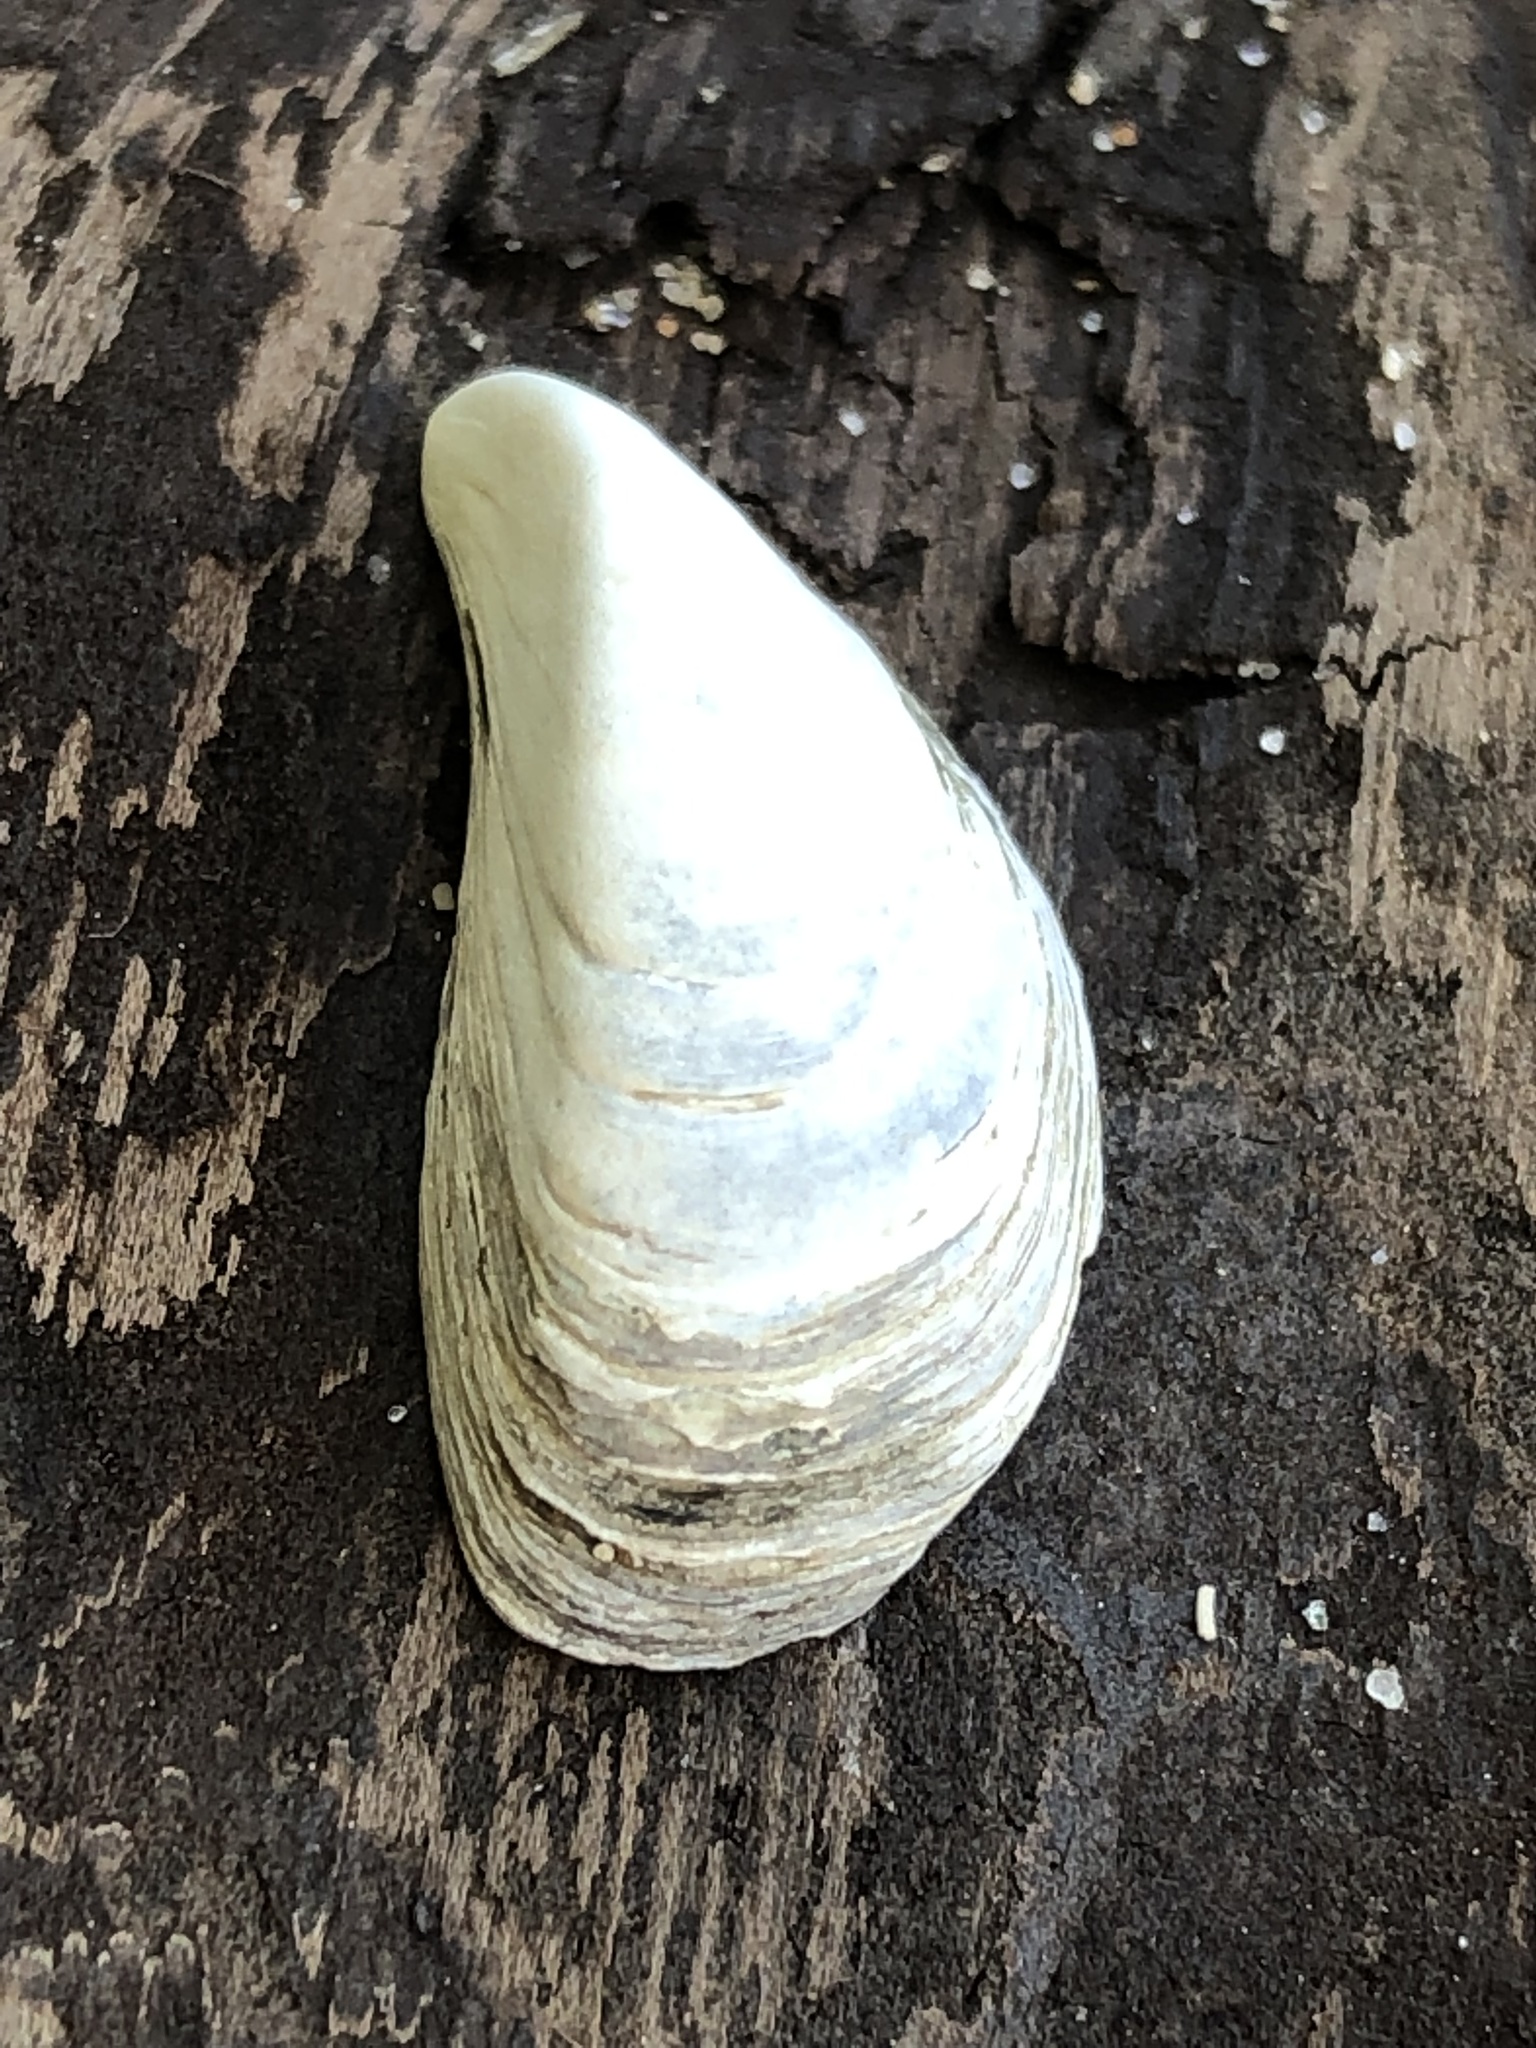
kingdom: Animalia
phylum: Mollusca
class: Bivalvia
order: Myida
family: Dreissenidae
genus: Dreissena
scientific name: Dreissena bugensis
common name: Quagga mussel
